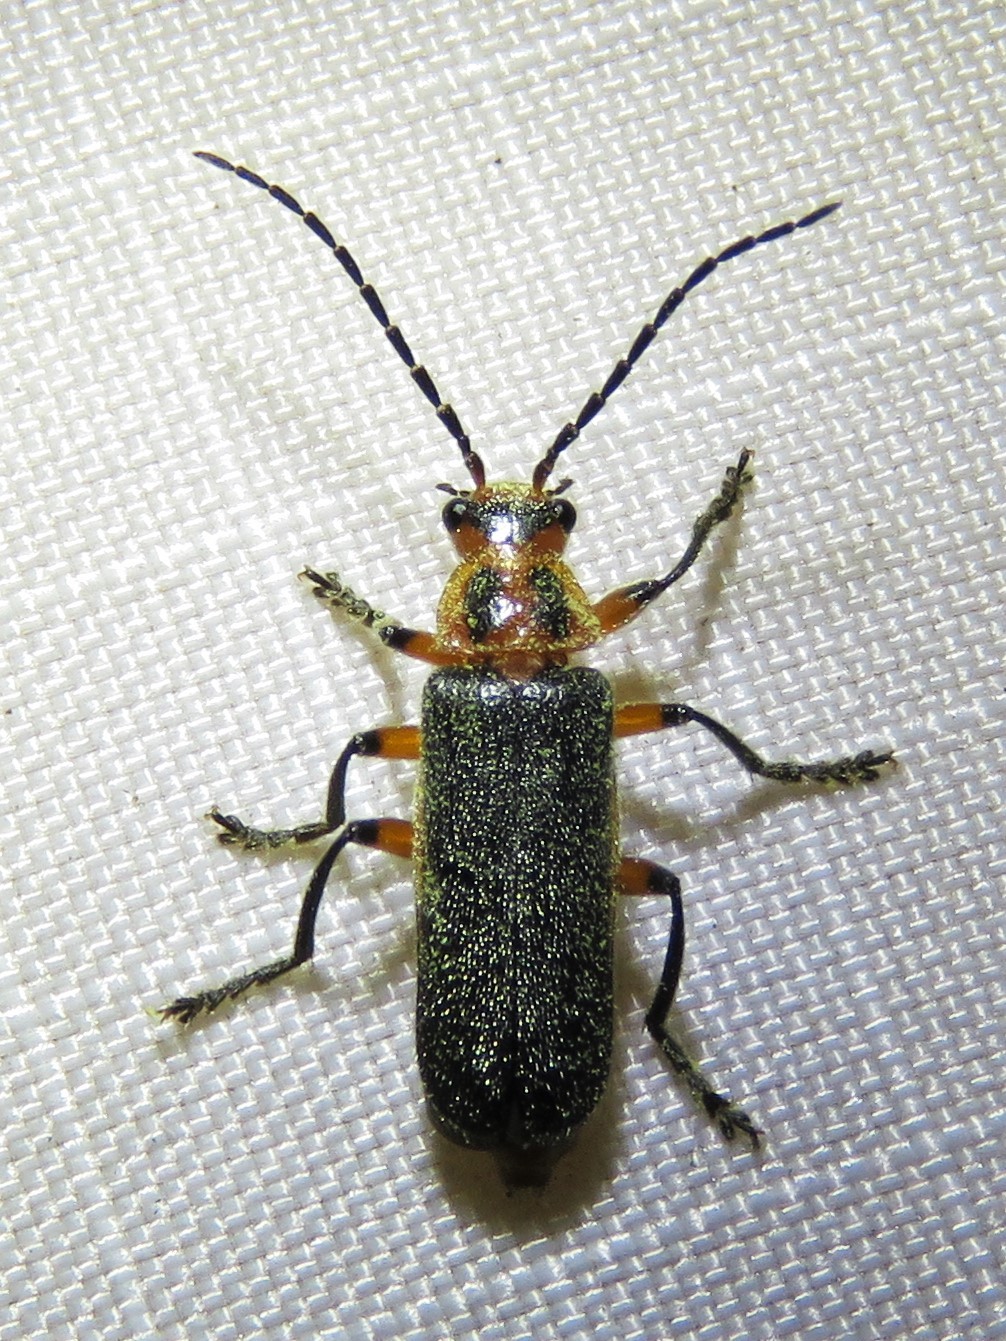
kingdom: Animalia
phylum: Arthropoda
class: Insecta
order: Coleoptera
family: Cantharidae
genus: Atalantycha
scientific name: Atalantycha bilineata
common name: Two-lined leatherwing
